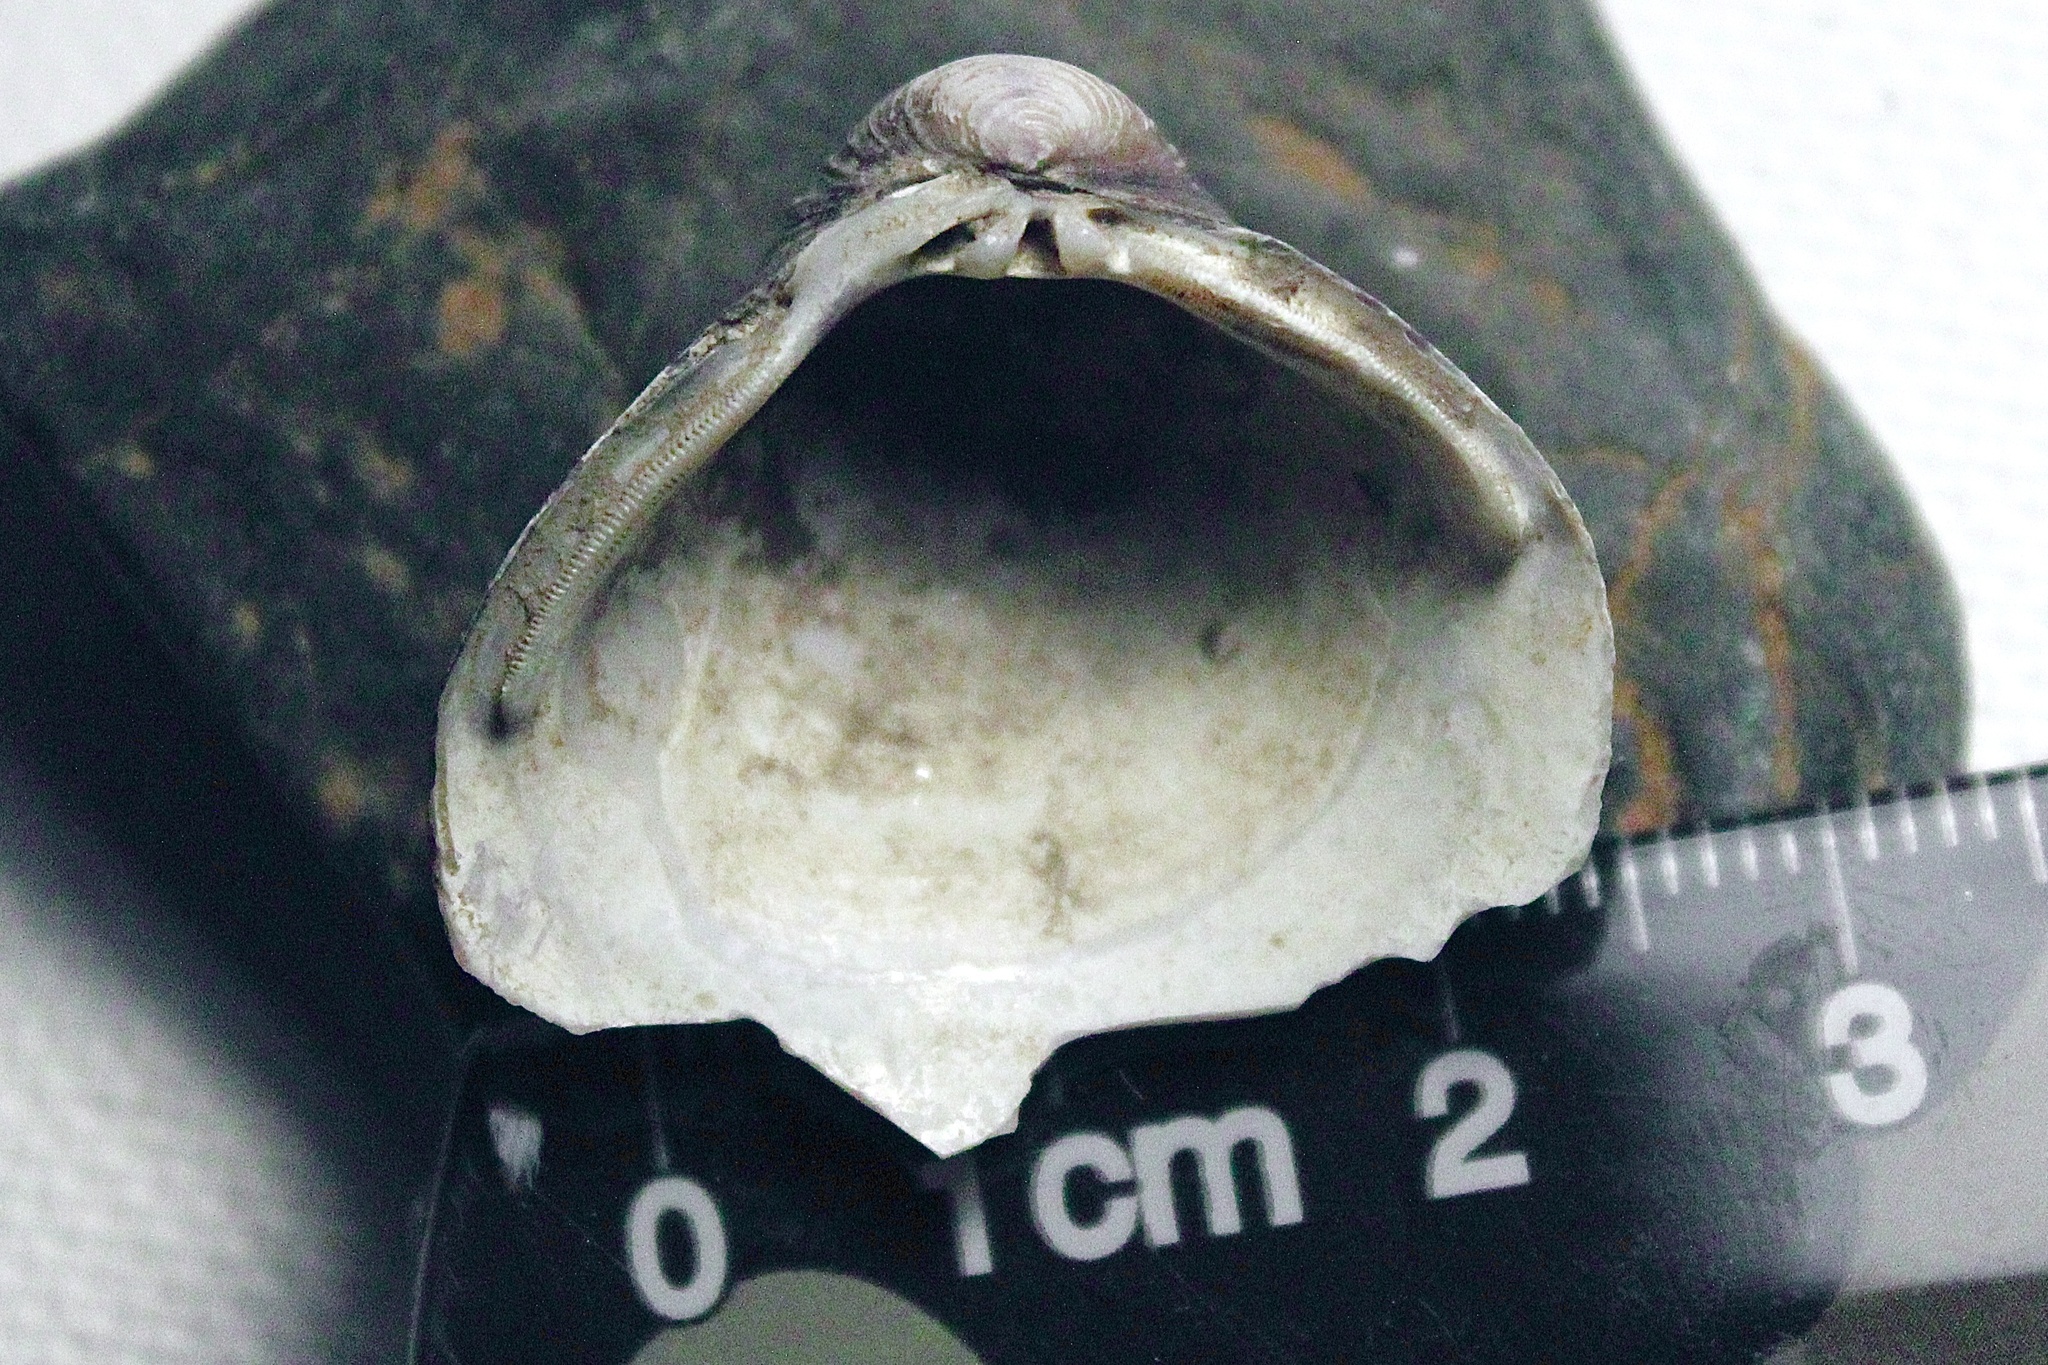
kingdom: Animalia
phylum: Mollusca
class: Bivalvia
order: Venerida
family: Cyrenidae
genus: Corbicula
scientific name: Corbicula fluminea
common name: Asian clam
